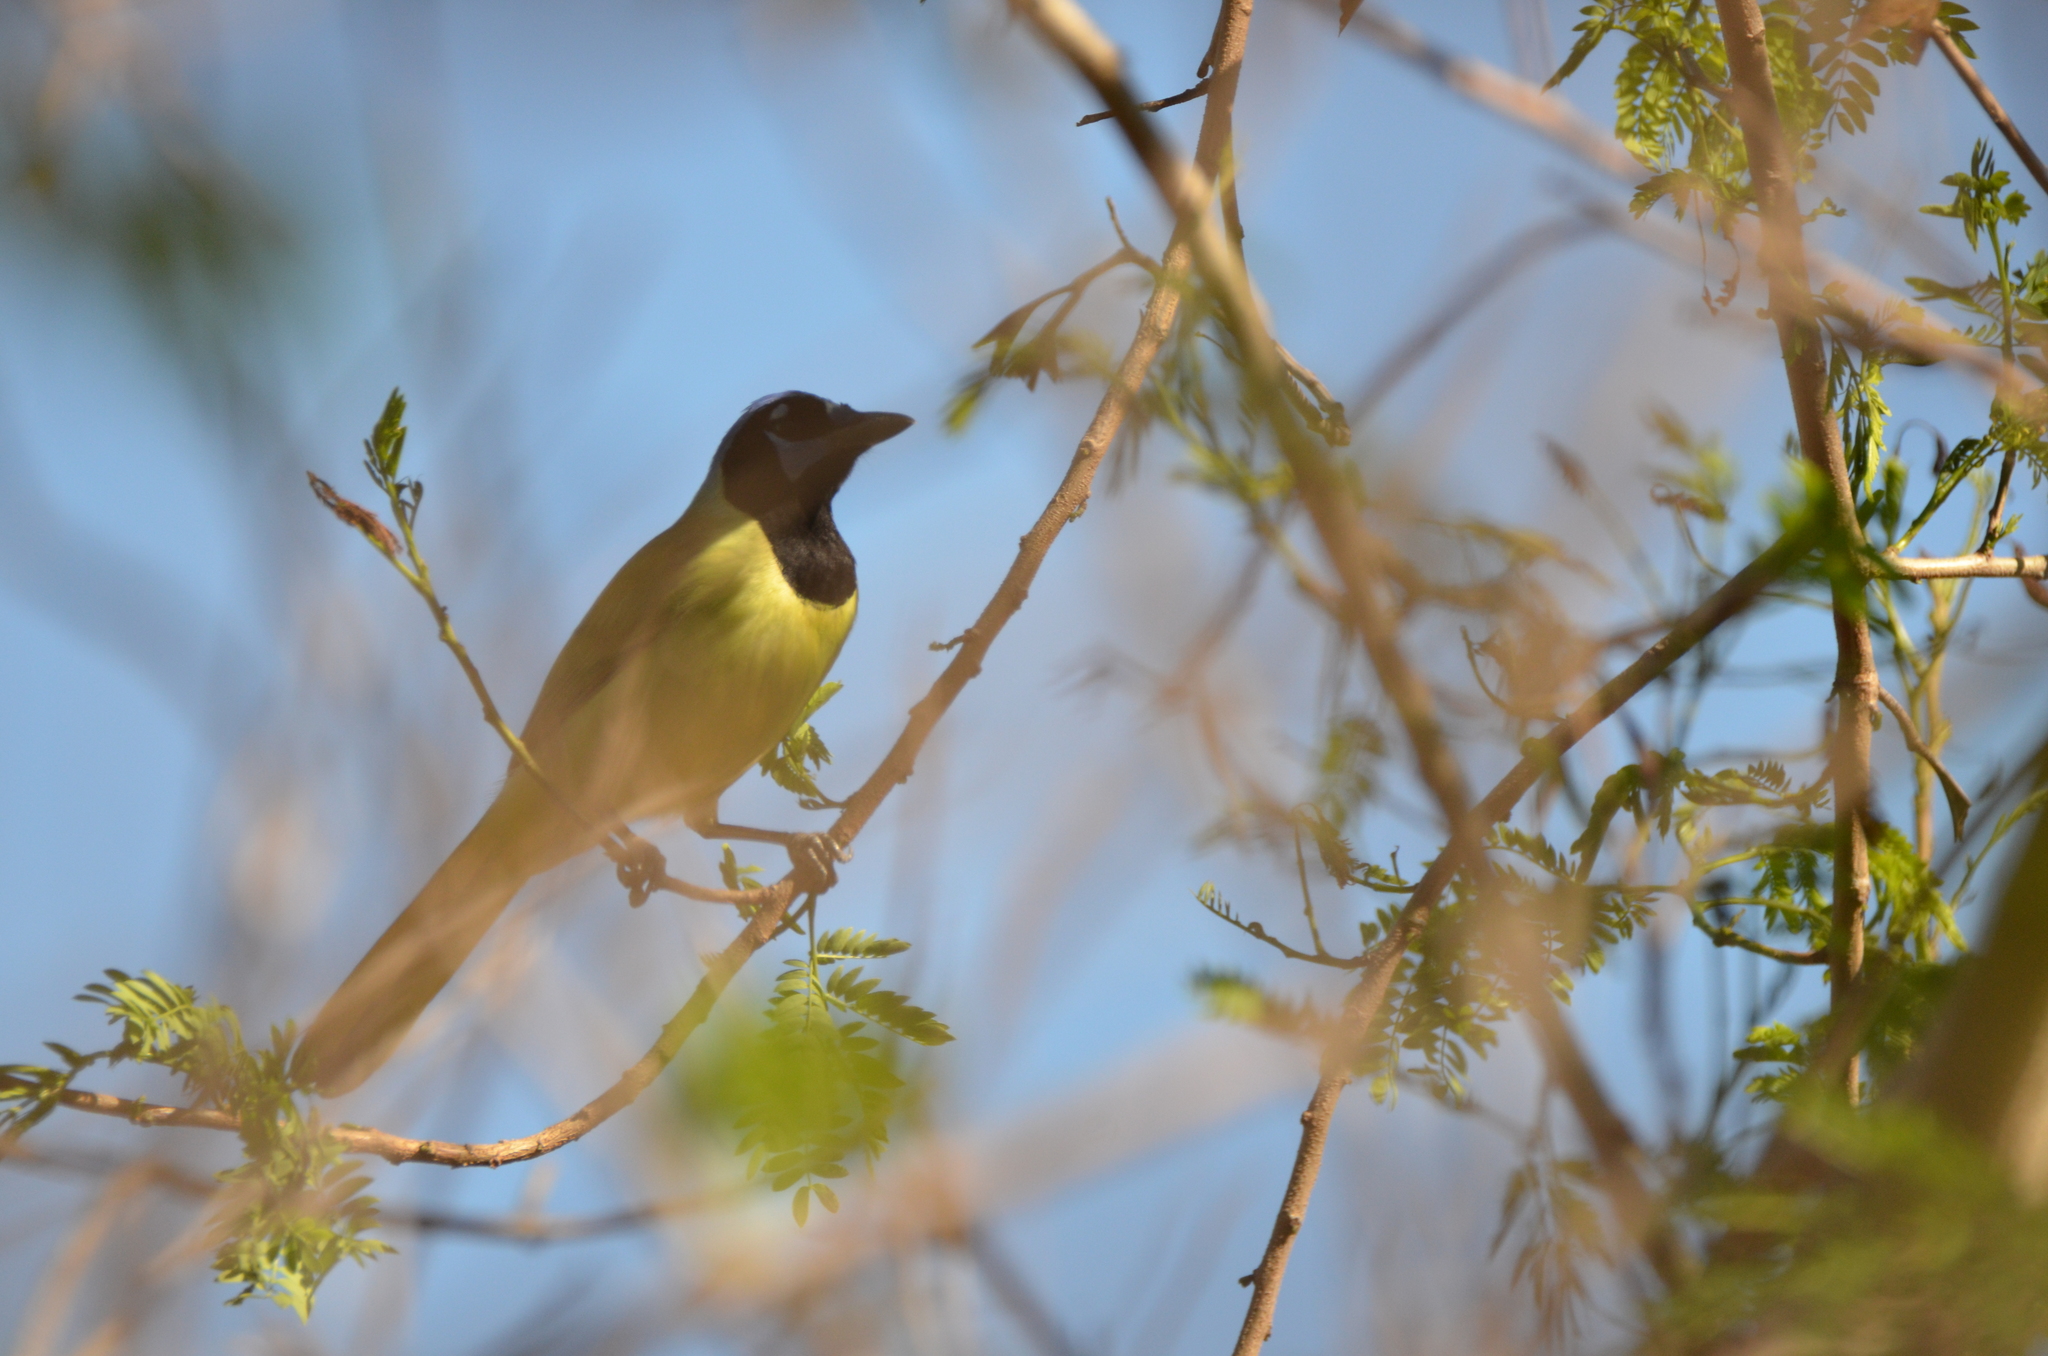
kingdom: Animalia
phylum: Chordata
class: Aves
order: Passeriformes
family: Corvidae
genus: Cyanocorax
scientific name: Cyanocorax yncas
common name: Green jay
